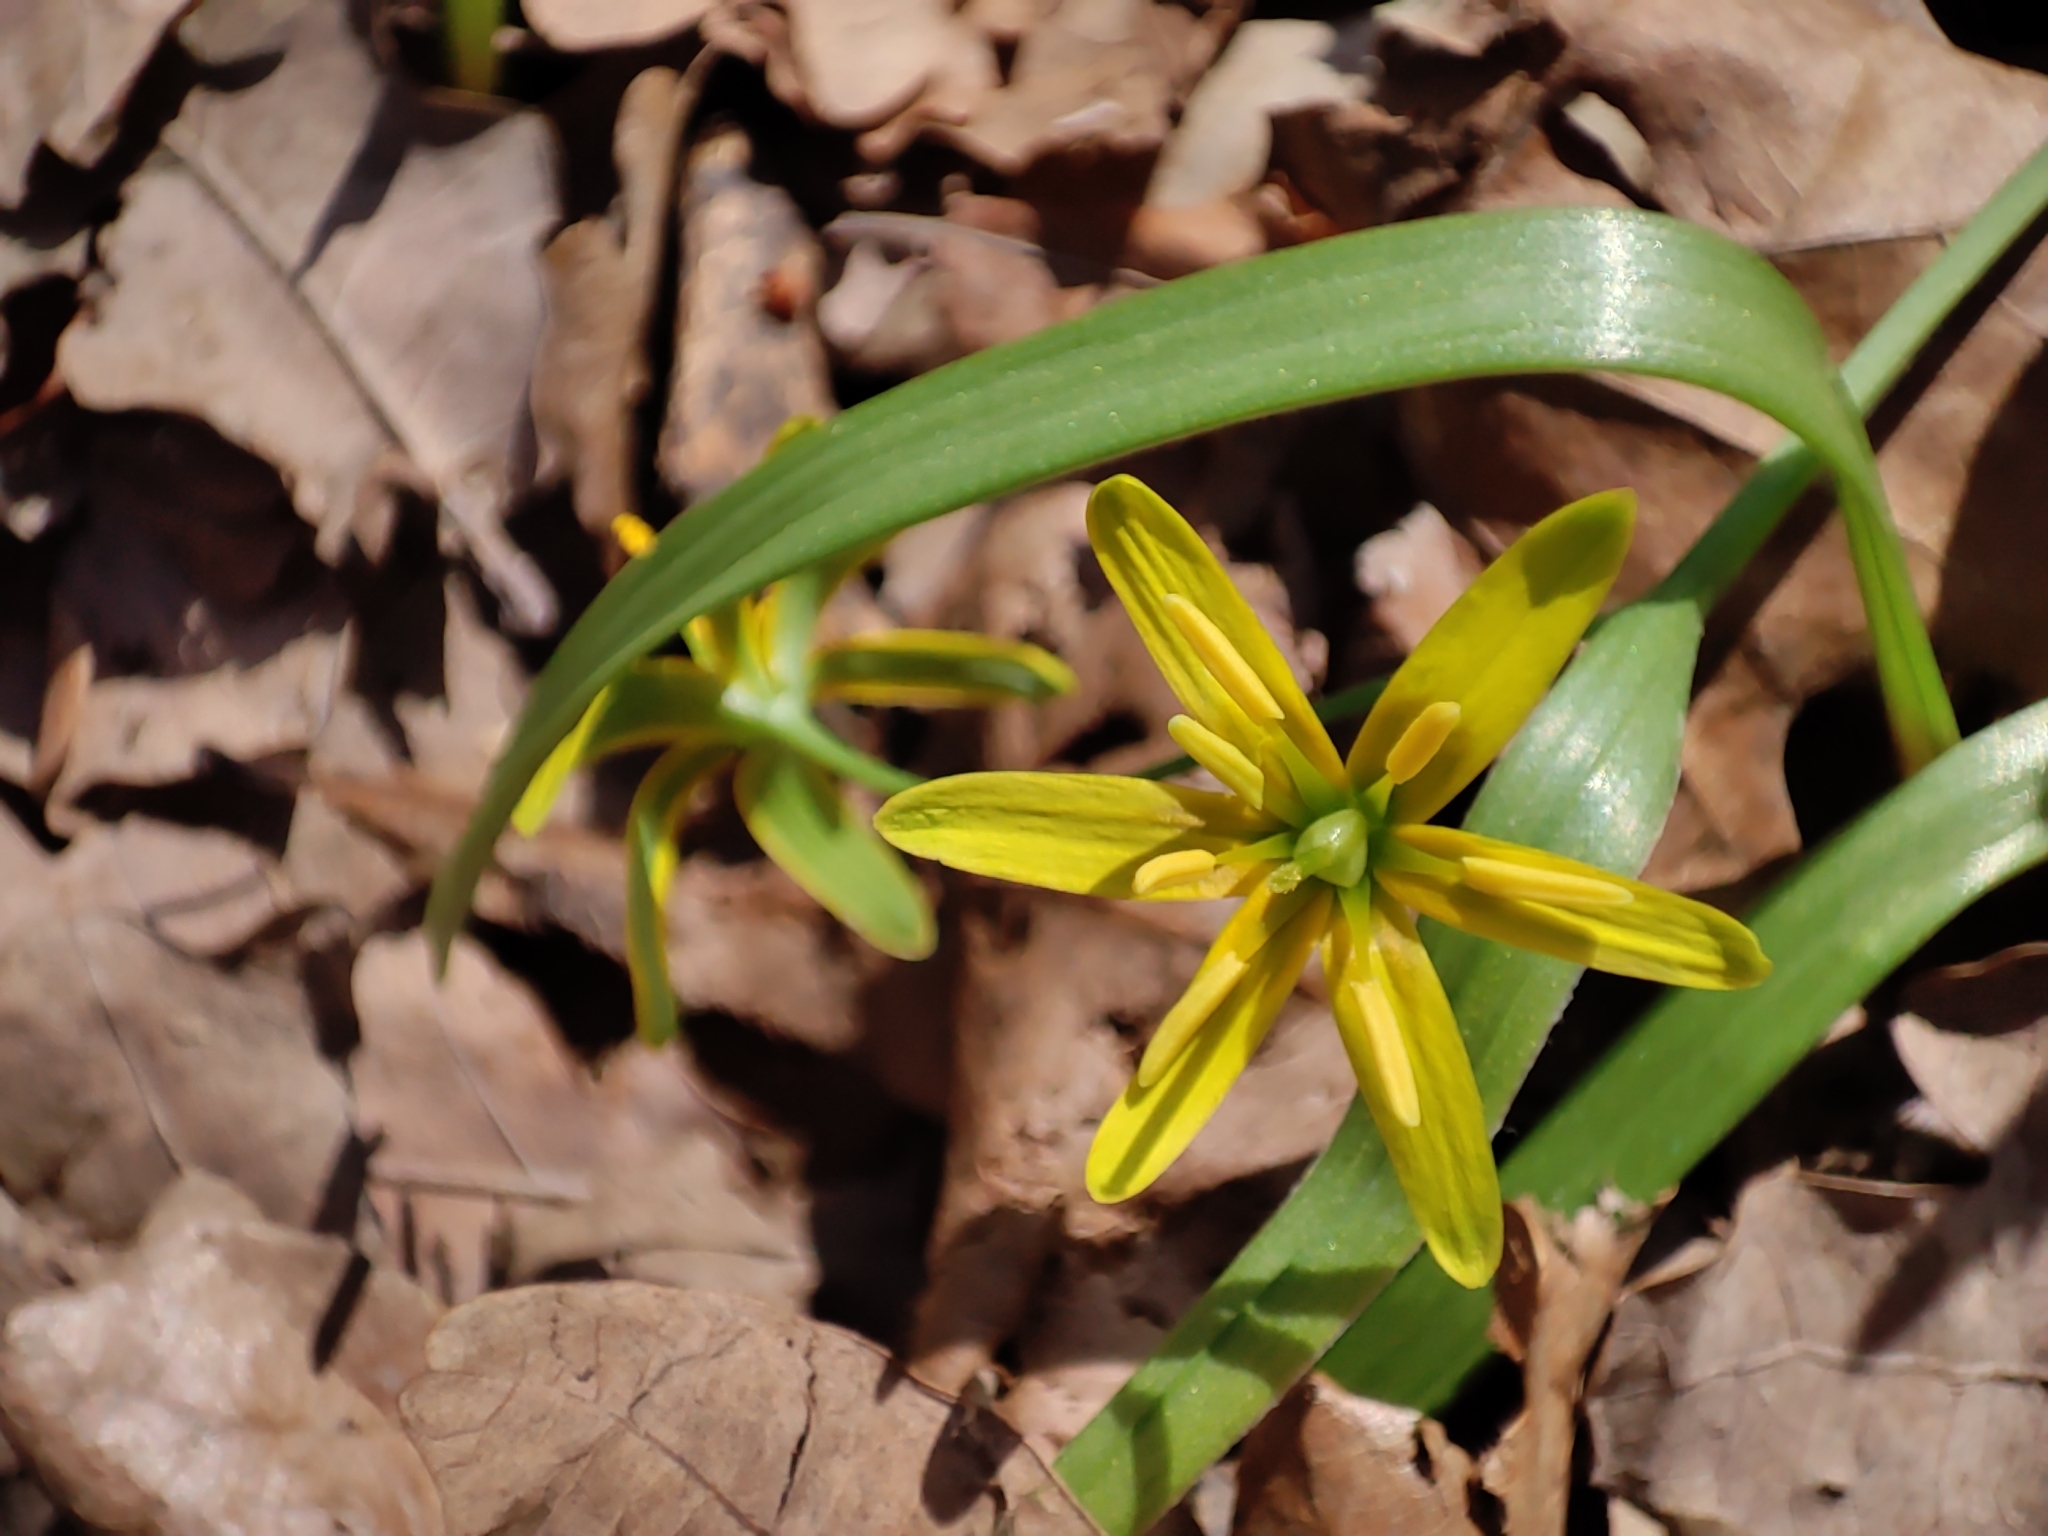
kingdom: Plantae
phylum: Tracheophyta
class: Liliopsida
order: Liliales
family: Liliaceae
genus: Gagea
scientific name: Gagea lutea
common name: Yellow star-of-bethlehem
